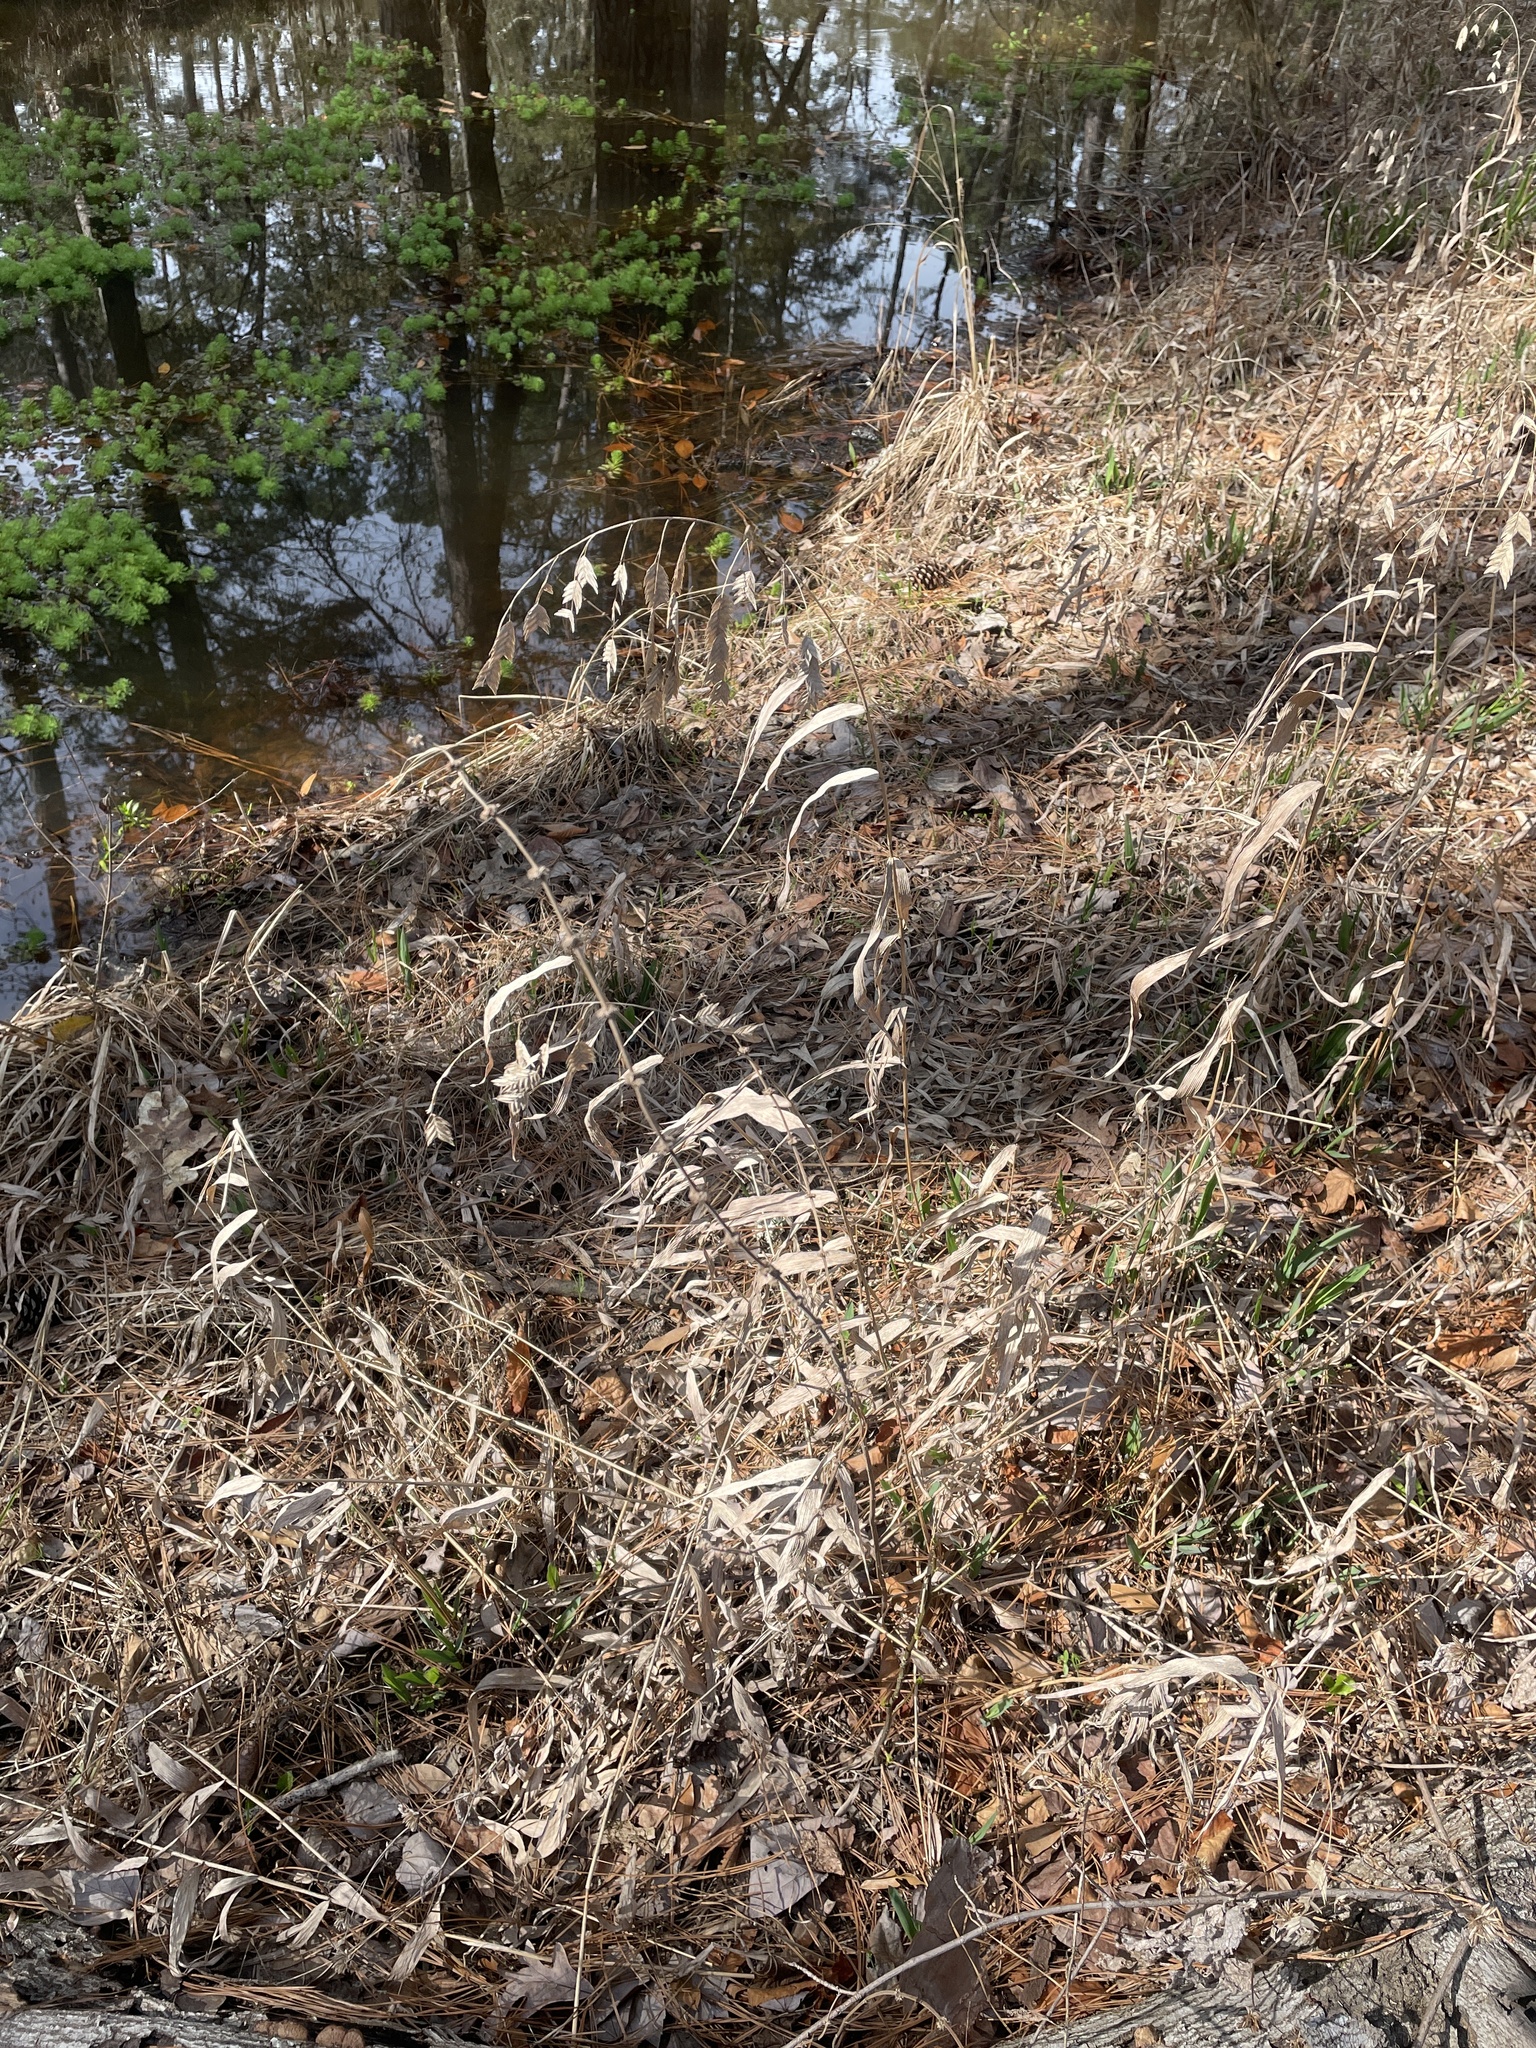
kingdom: Plantae
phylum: Tracheophyta
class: Liliopsida
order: Poales
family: Poaceae
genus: Chasmanthium
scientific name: Chasmanthium latifolium
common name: Broad-leaved chasmanthium
